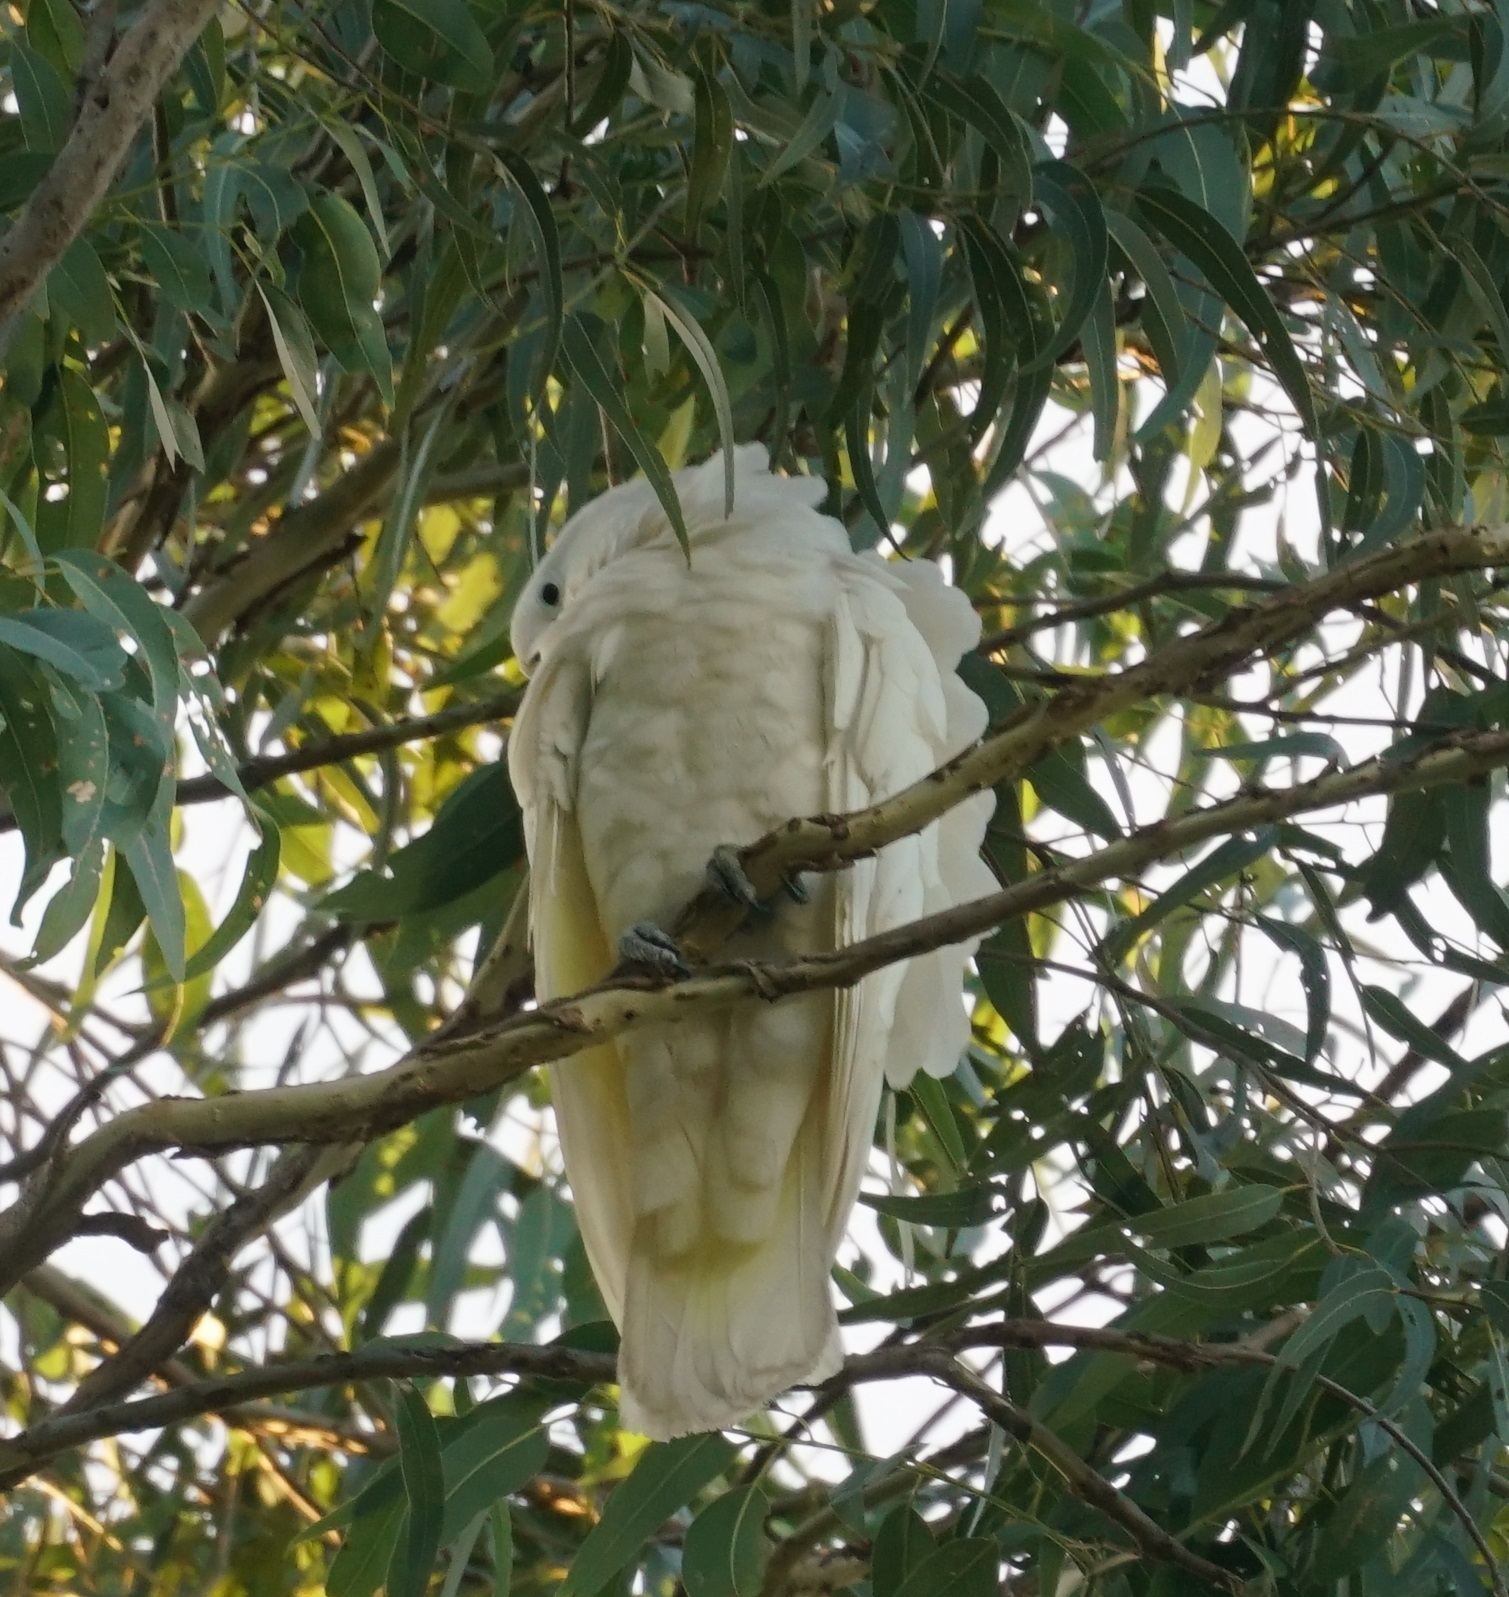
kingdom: Animalia
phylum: Chordata
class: Aves
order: Psittaciformes
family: Psittacidae
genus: Cacatua
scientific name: Cacatua galerita
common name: Sulphur-crested cockatoo
